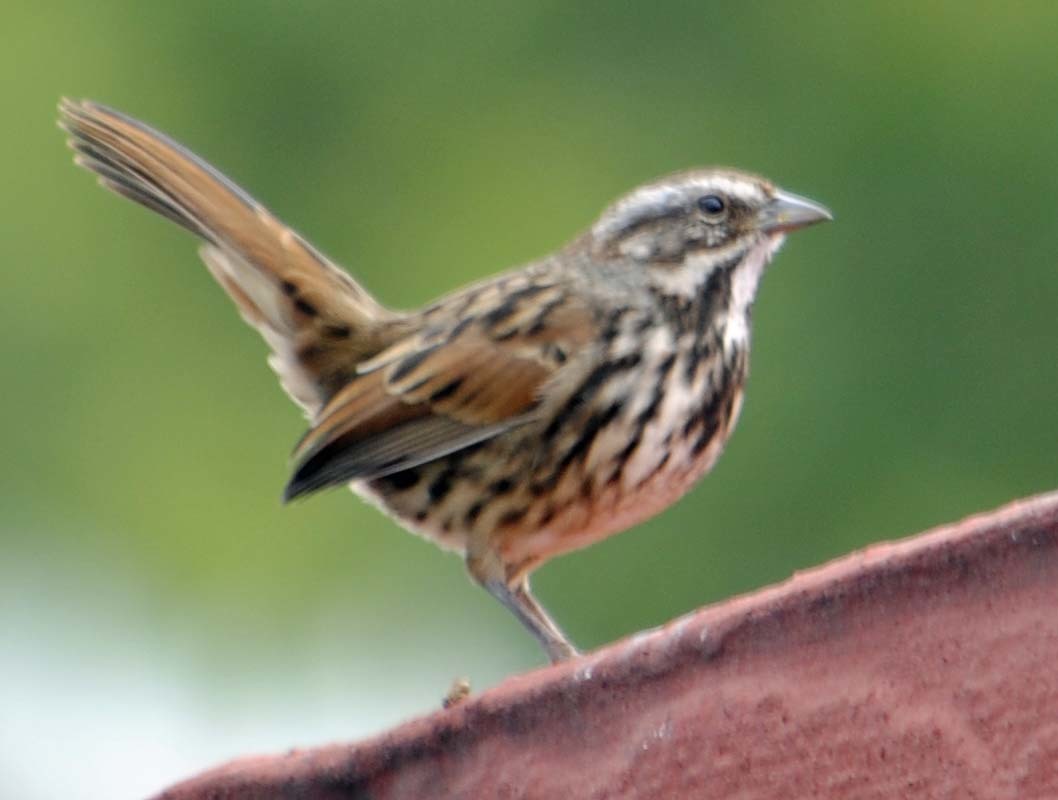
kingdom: Animalia
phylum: Chordata
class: Aves
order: Passeriformes
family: Passerellidae
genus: Melospiza
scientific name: Melospiza melodia
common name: Song sparrow
